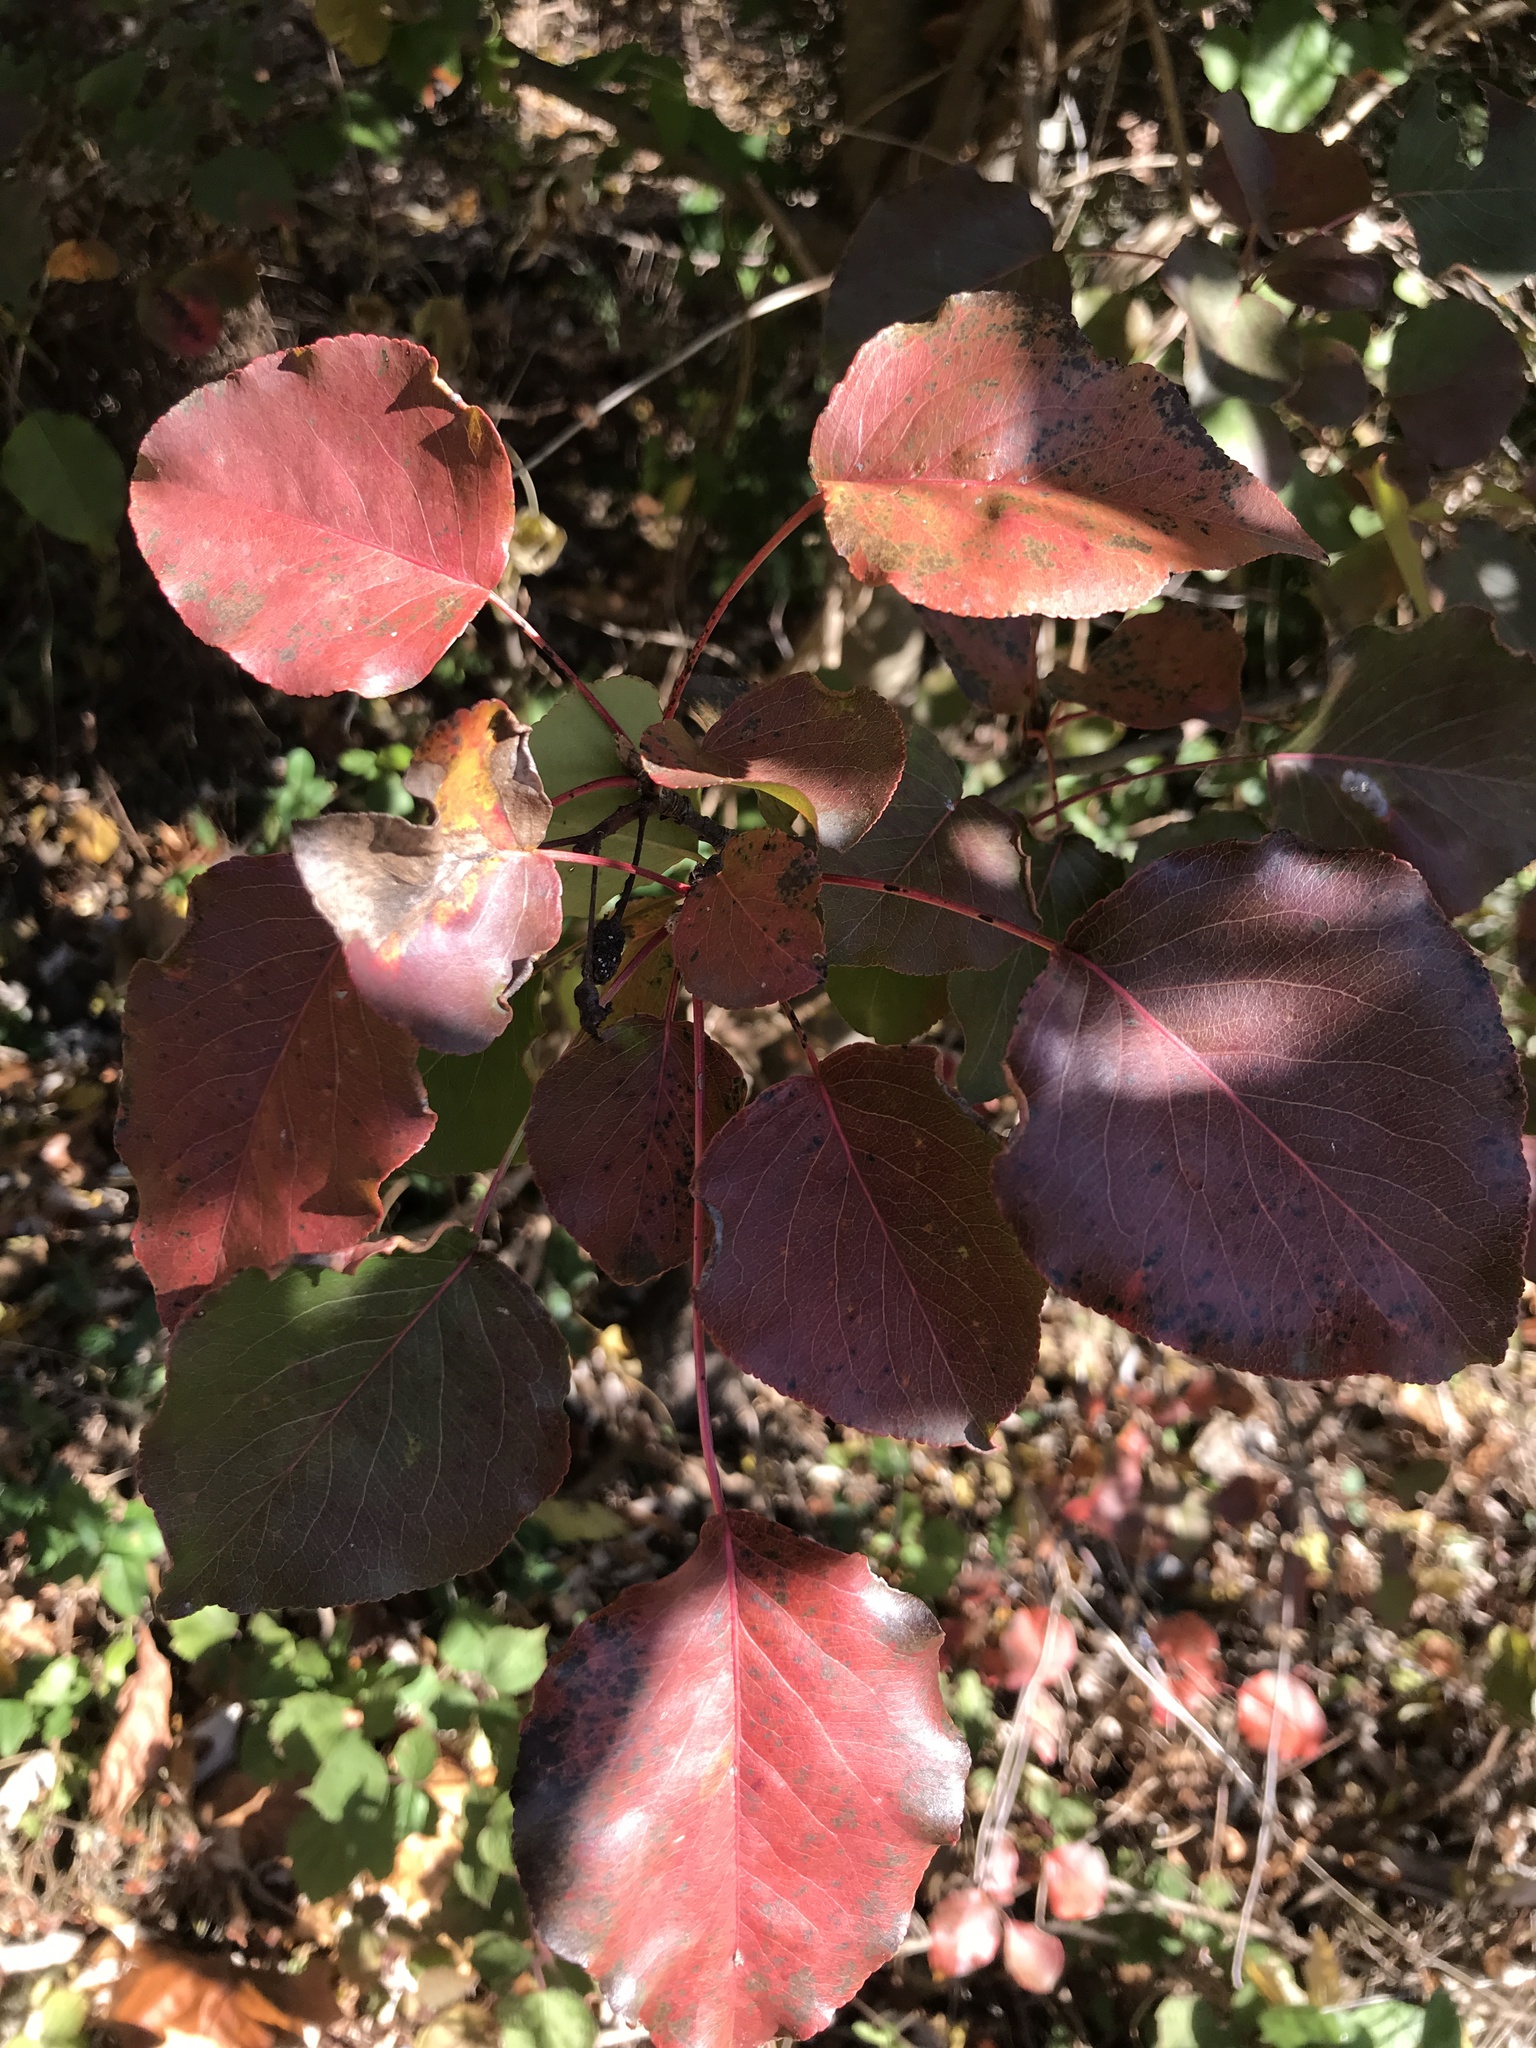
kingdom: Plantae
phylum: Tracheophyta
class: Magnoliopsida
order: Rosales
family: Rosaceae
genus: Pyrus
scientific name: Pyrus calleryana
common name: Callery pear
